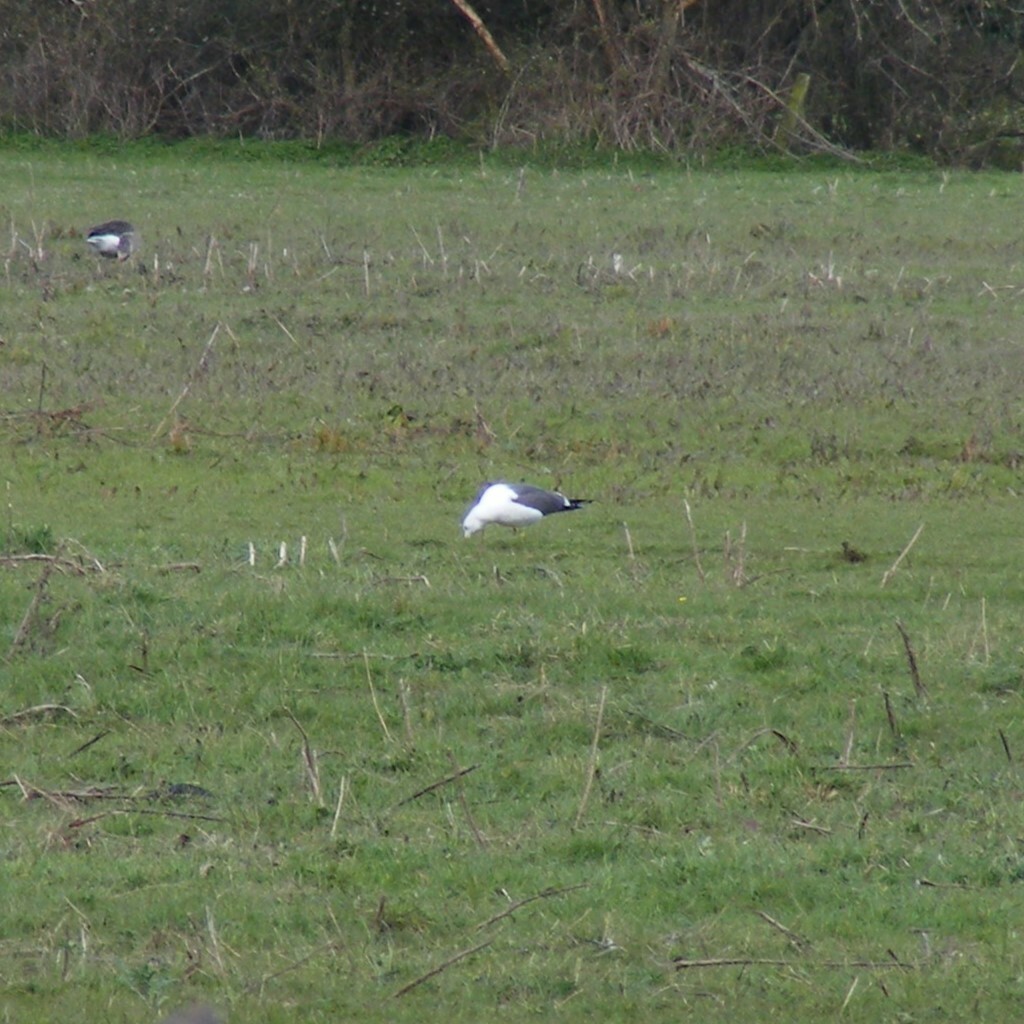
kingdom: Animalia
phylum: Chordata
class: Aves
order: Charadriiformes
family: Laridae
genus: Larus
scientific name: Larus fuscus
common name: Lesser black-backed gull
